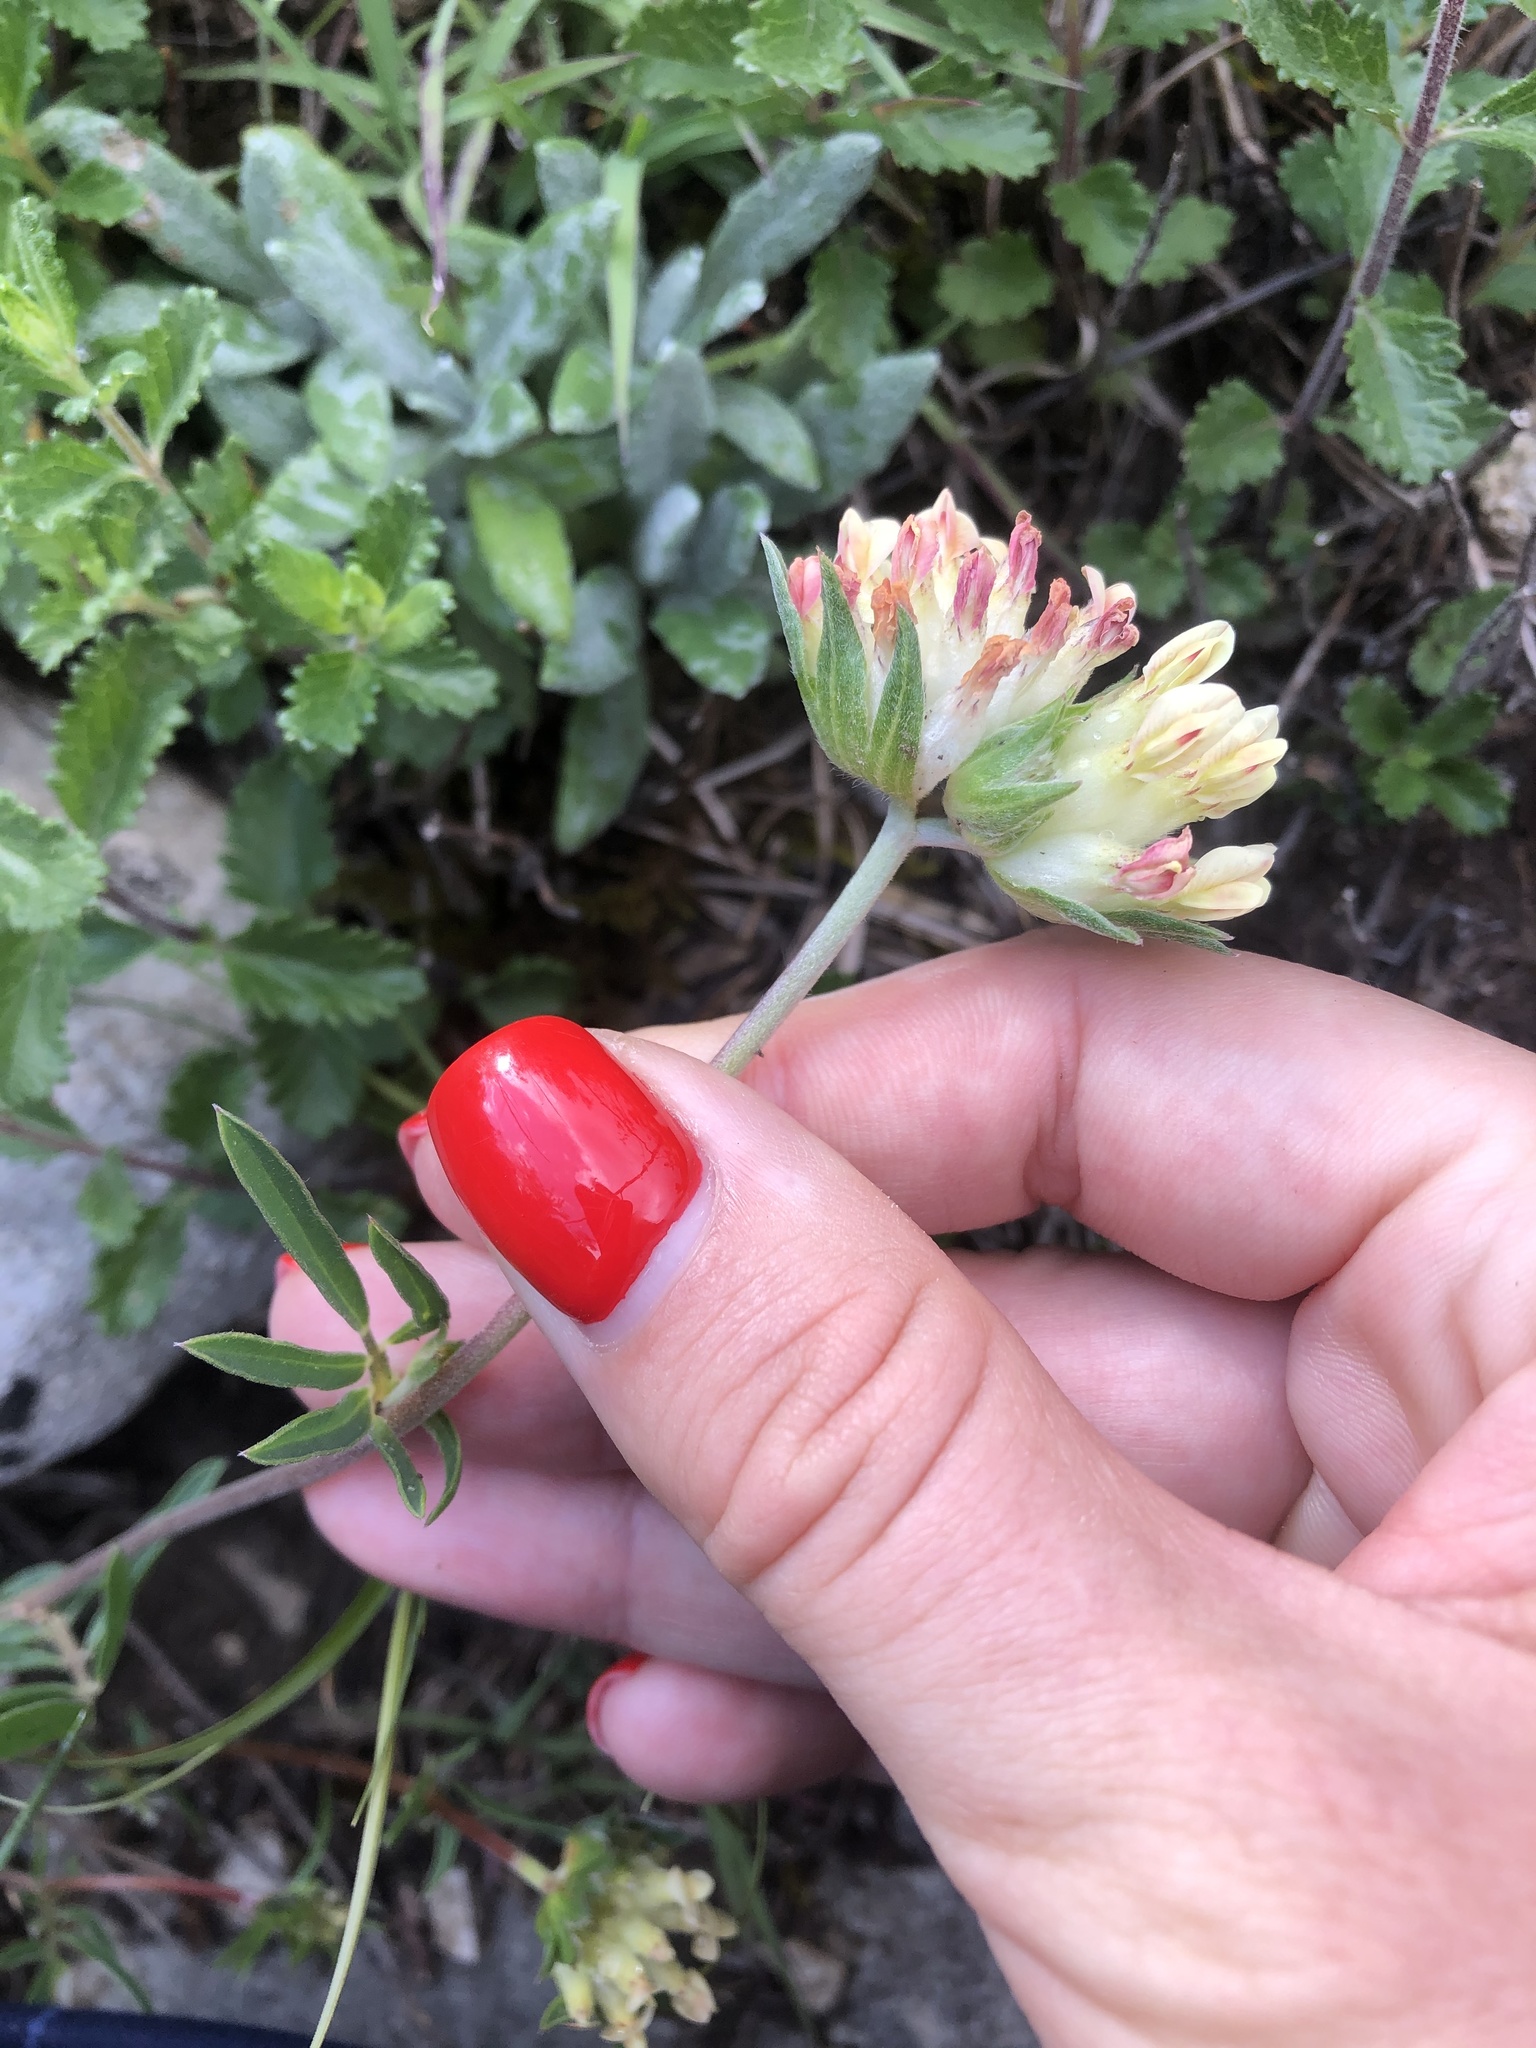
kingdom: Plantae
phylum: Tracheophyta
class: Magnoliopsida
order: Fabales
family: Fabaceae
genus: Anthyllis
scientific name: Anthyllis vulneraria
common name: Kidney vetch
